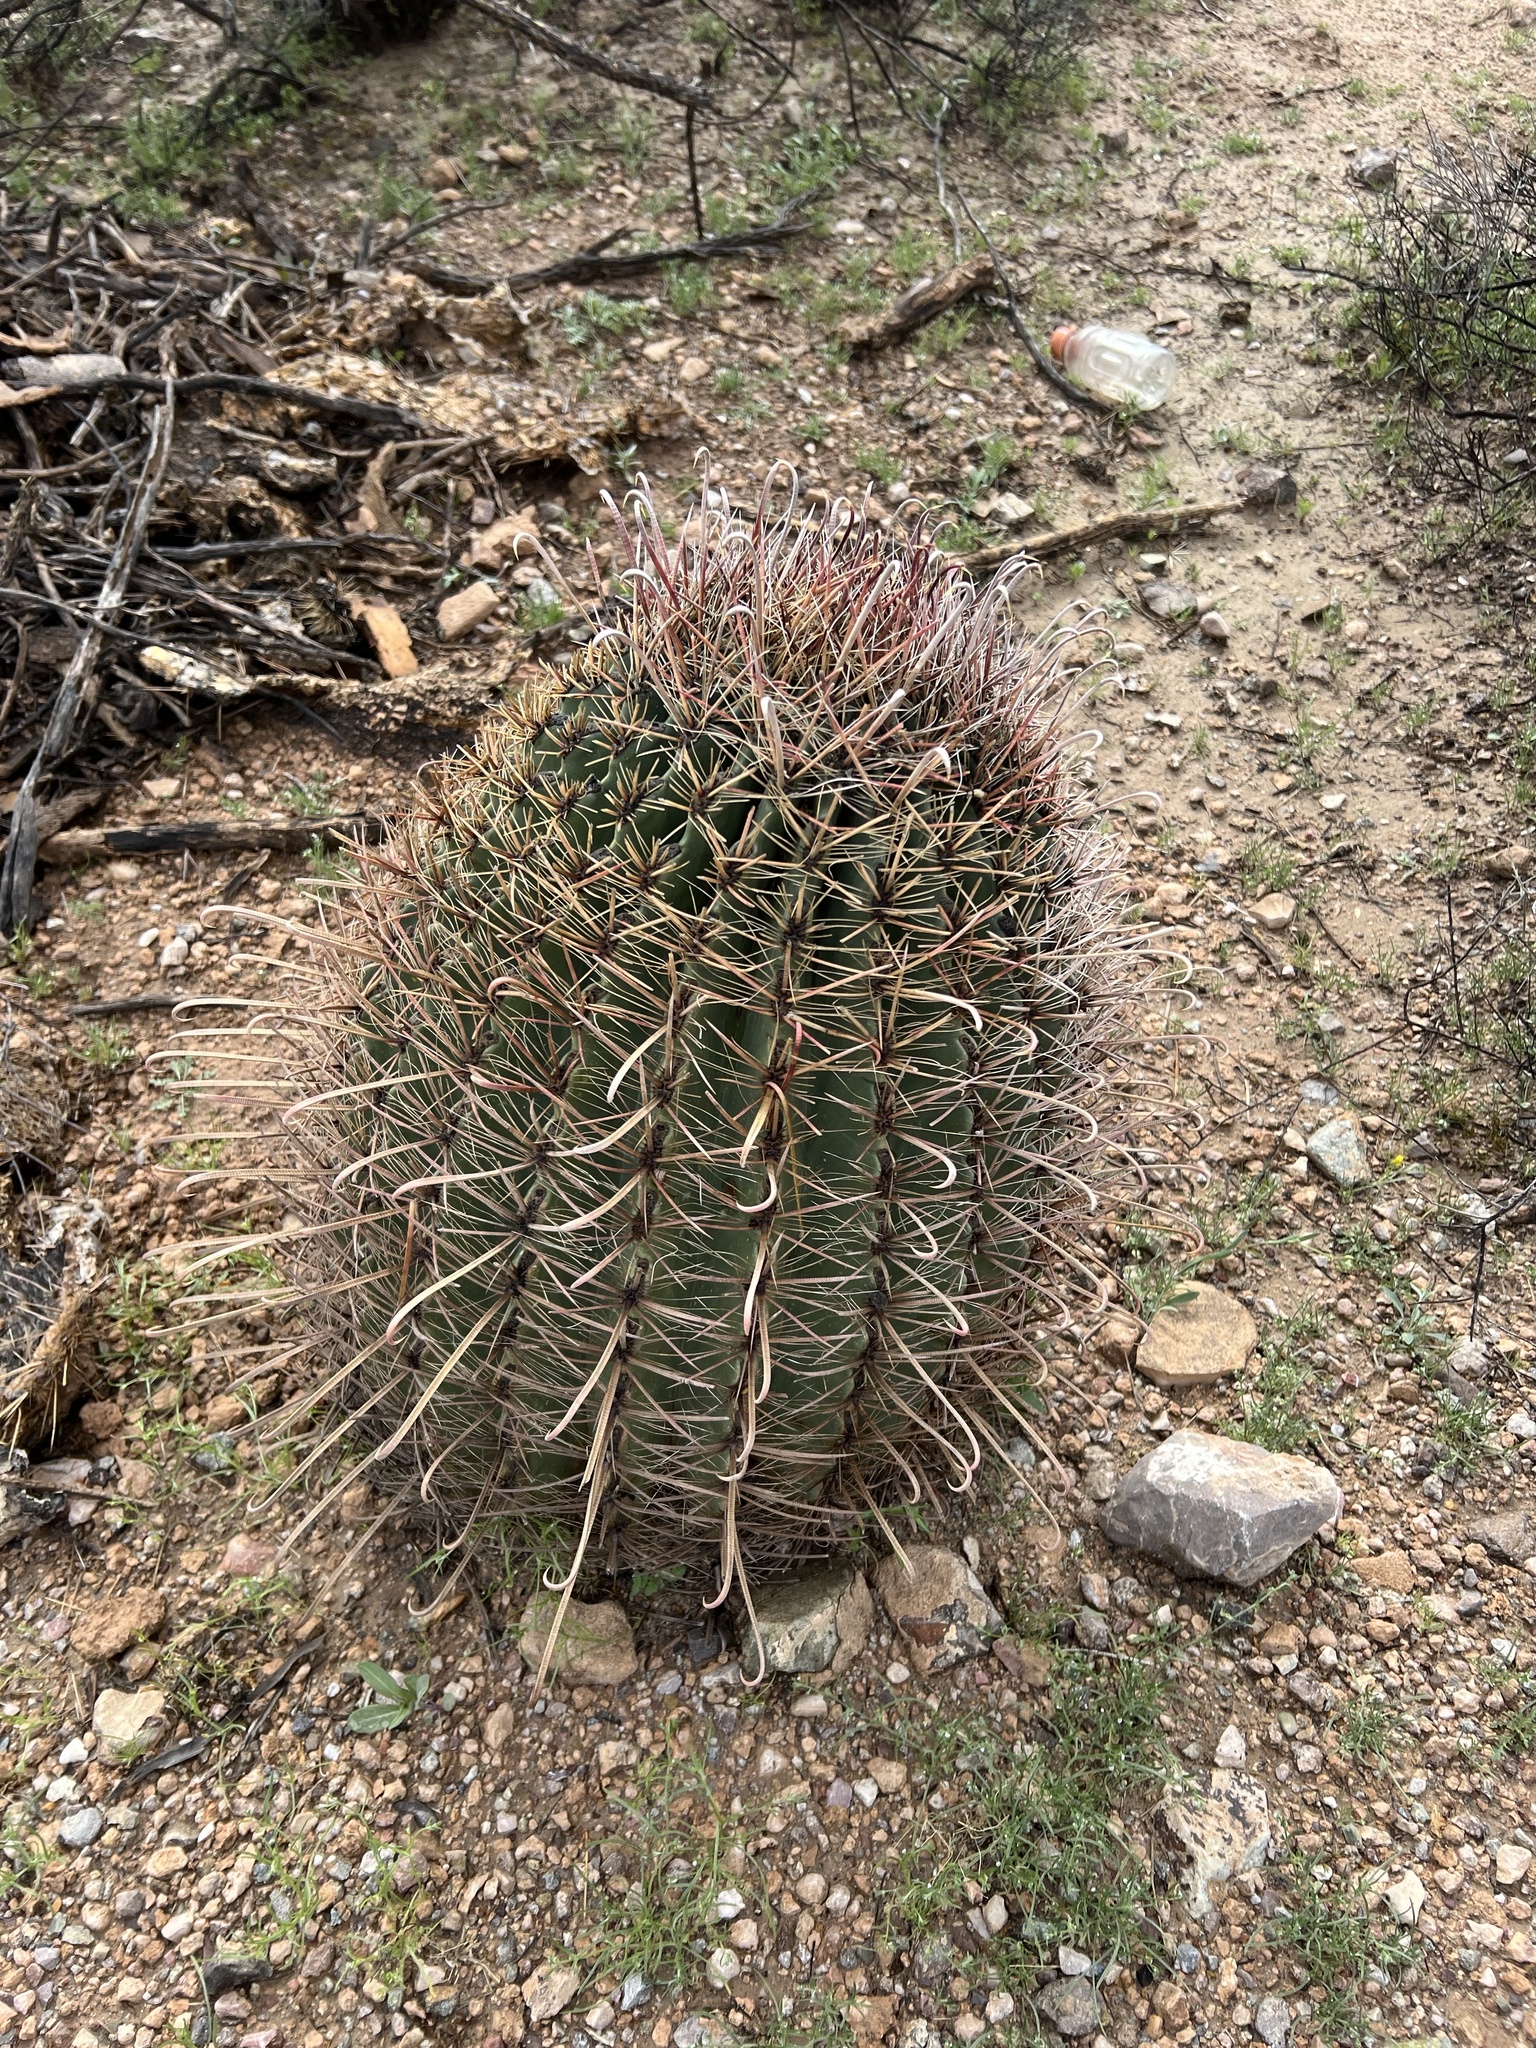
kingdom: Plantae
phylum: Tracheophyta
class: Magnoliopsida
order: Caryophyllales
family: Cactaceae
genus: Ferocactus
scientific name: Ferocactus wislizeni
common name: Candy barrel cactus
